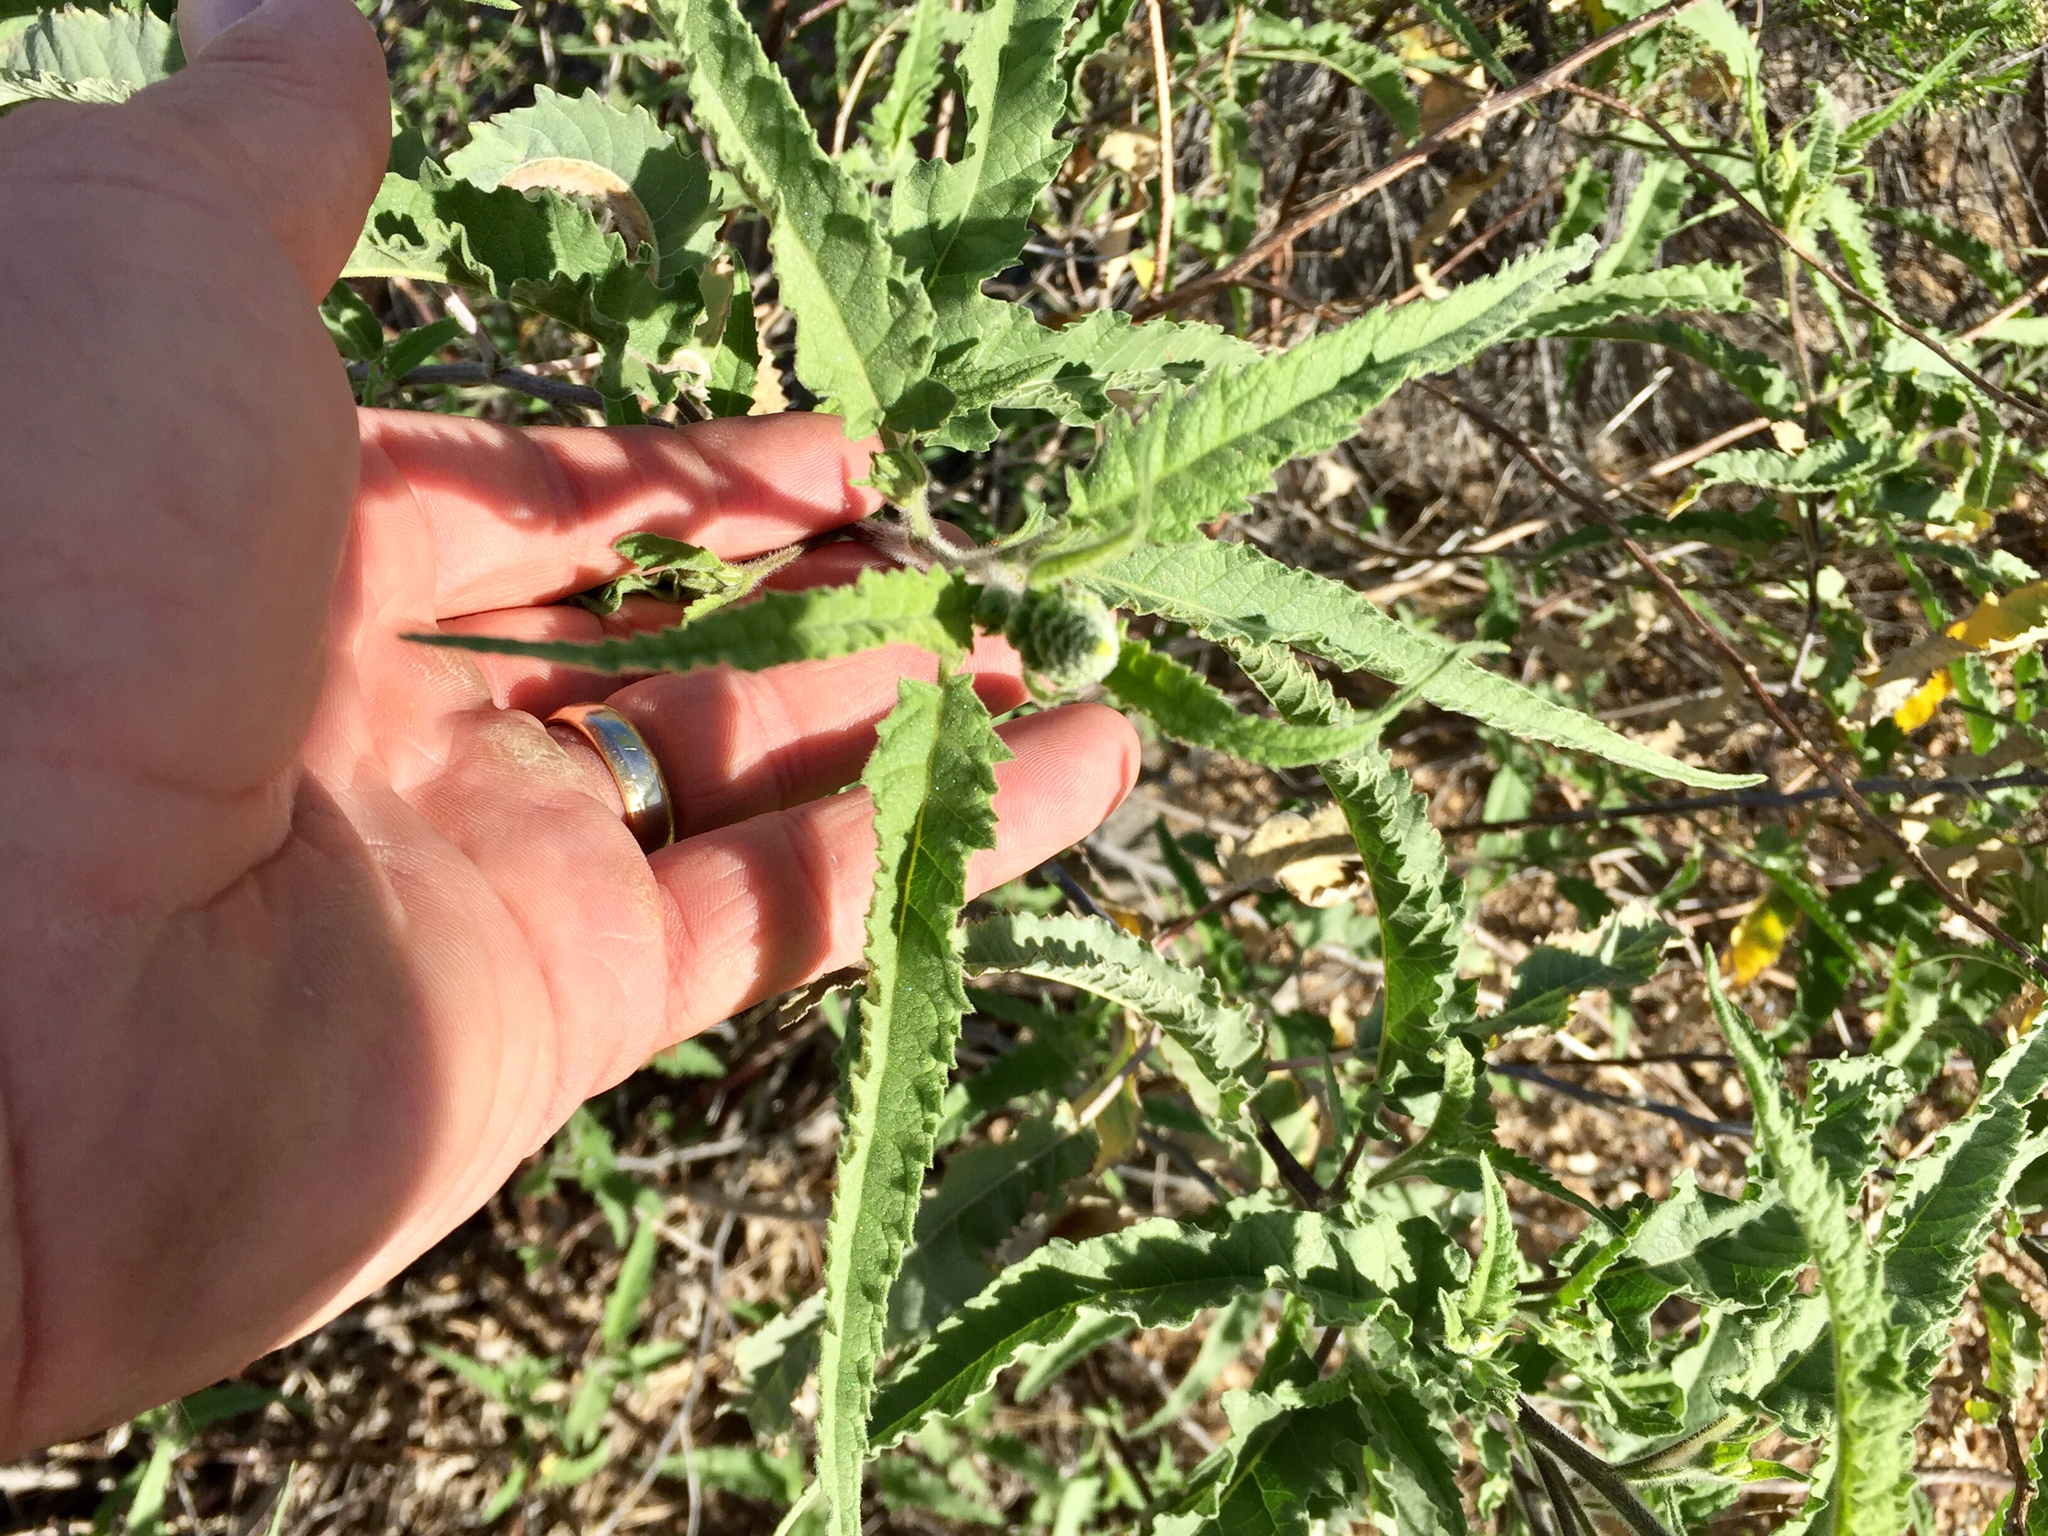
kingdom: Plantae
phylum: Tracheophyta
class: Magnoliopsida
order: Asterales
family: Asteraceae
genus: Ambrosia
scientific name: Ambrosia ambrosioides
